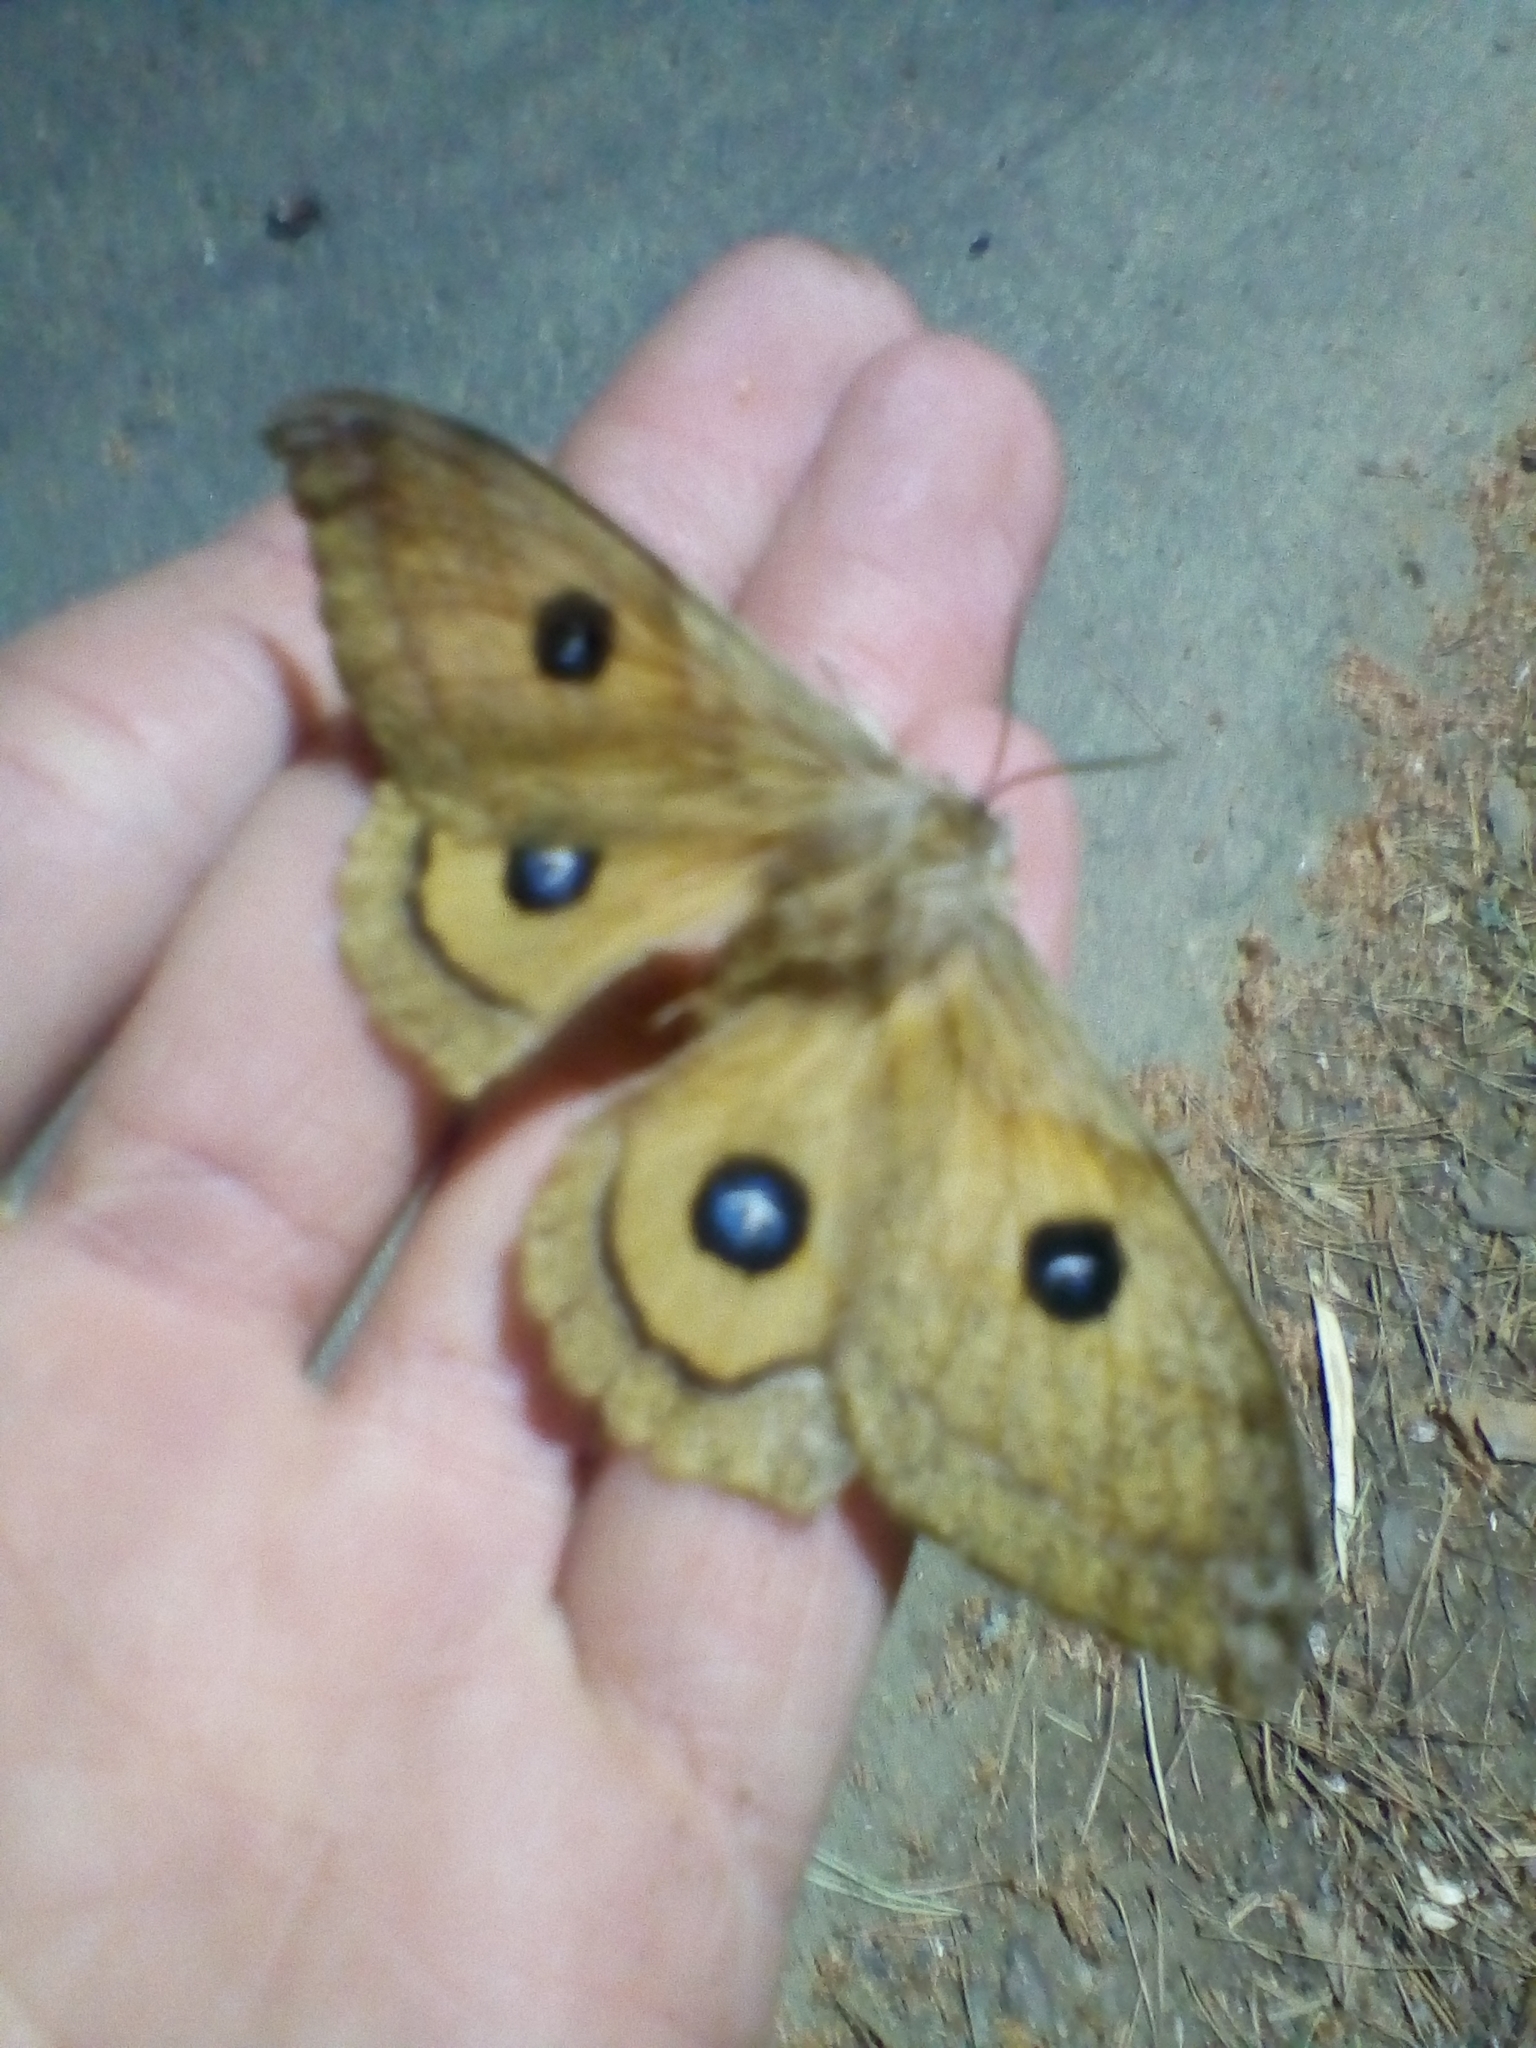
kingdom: Animalia
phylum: Arthropoda
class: Insecta
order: Lepidoptera
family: Saturniidae
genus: Aglia
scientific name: Aglia tau
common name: Tau emperor
